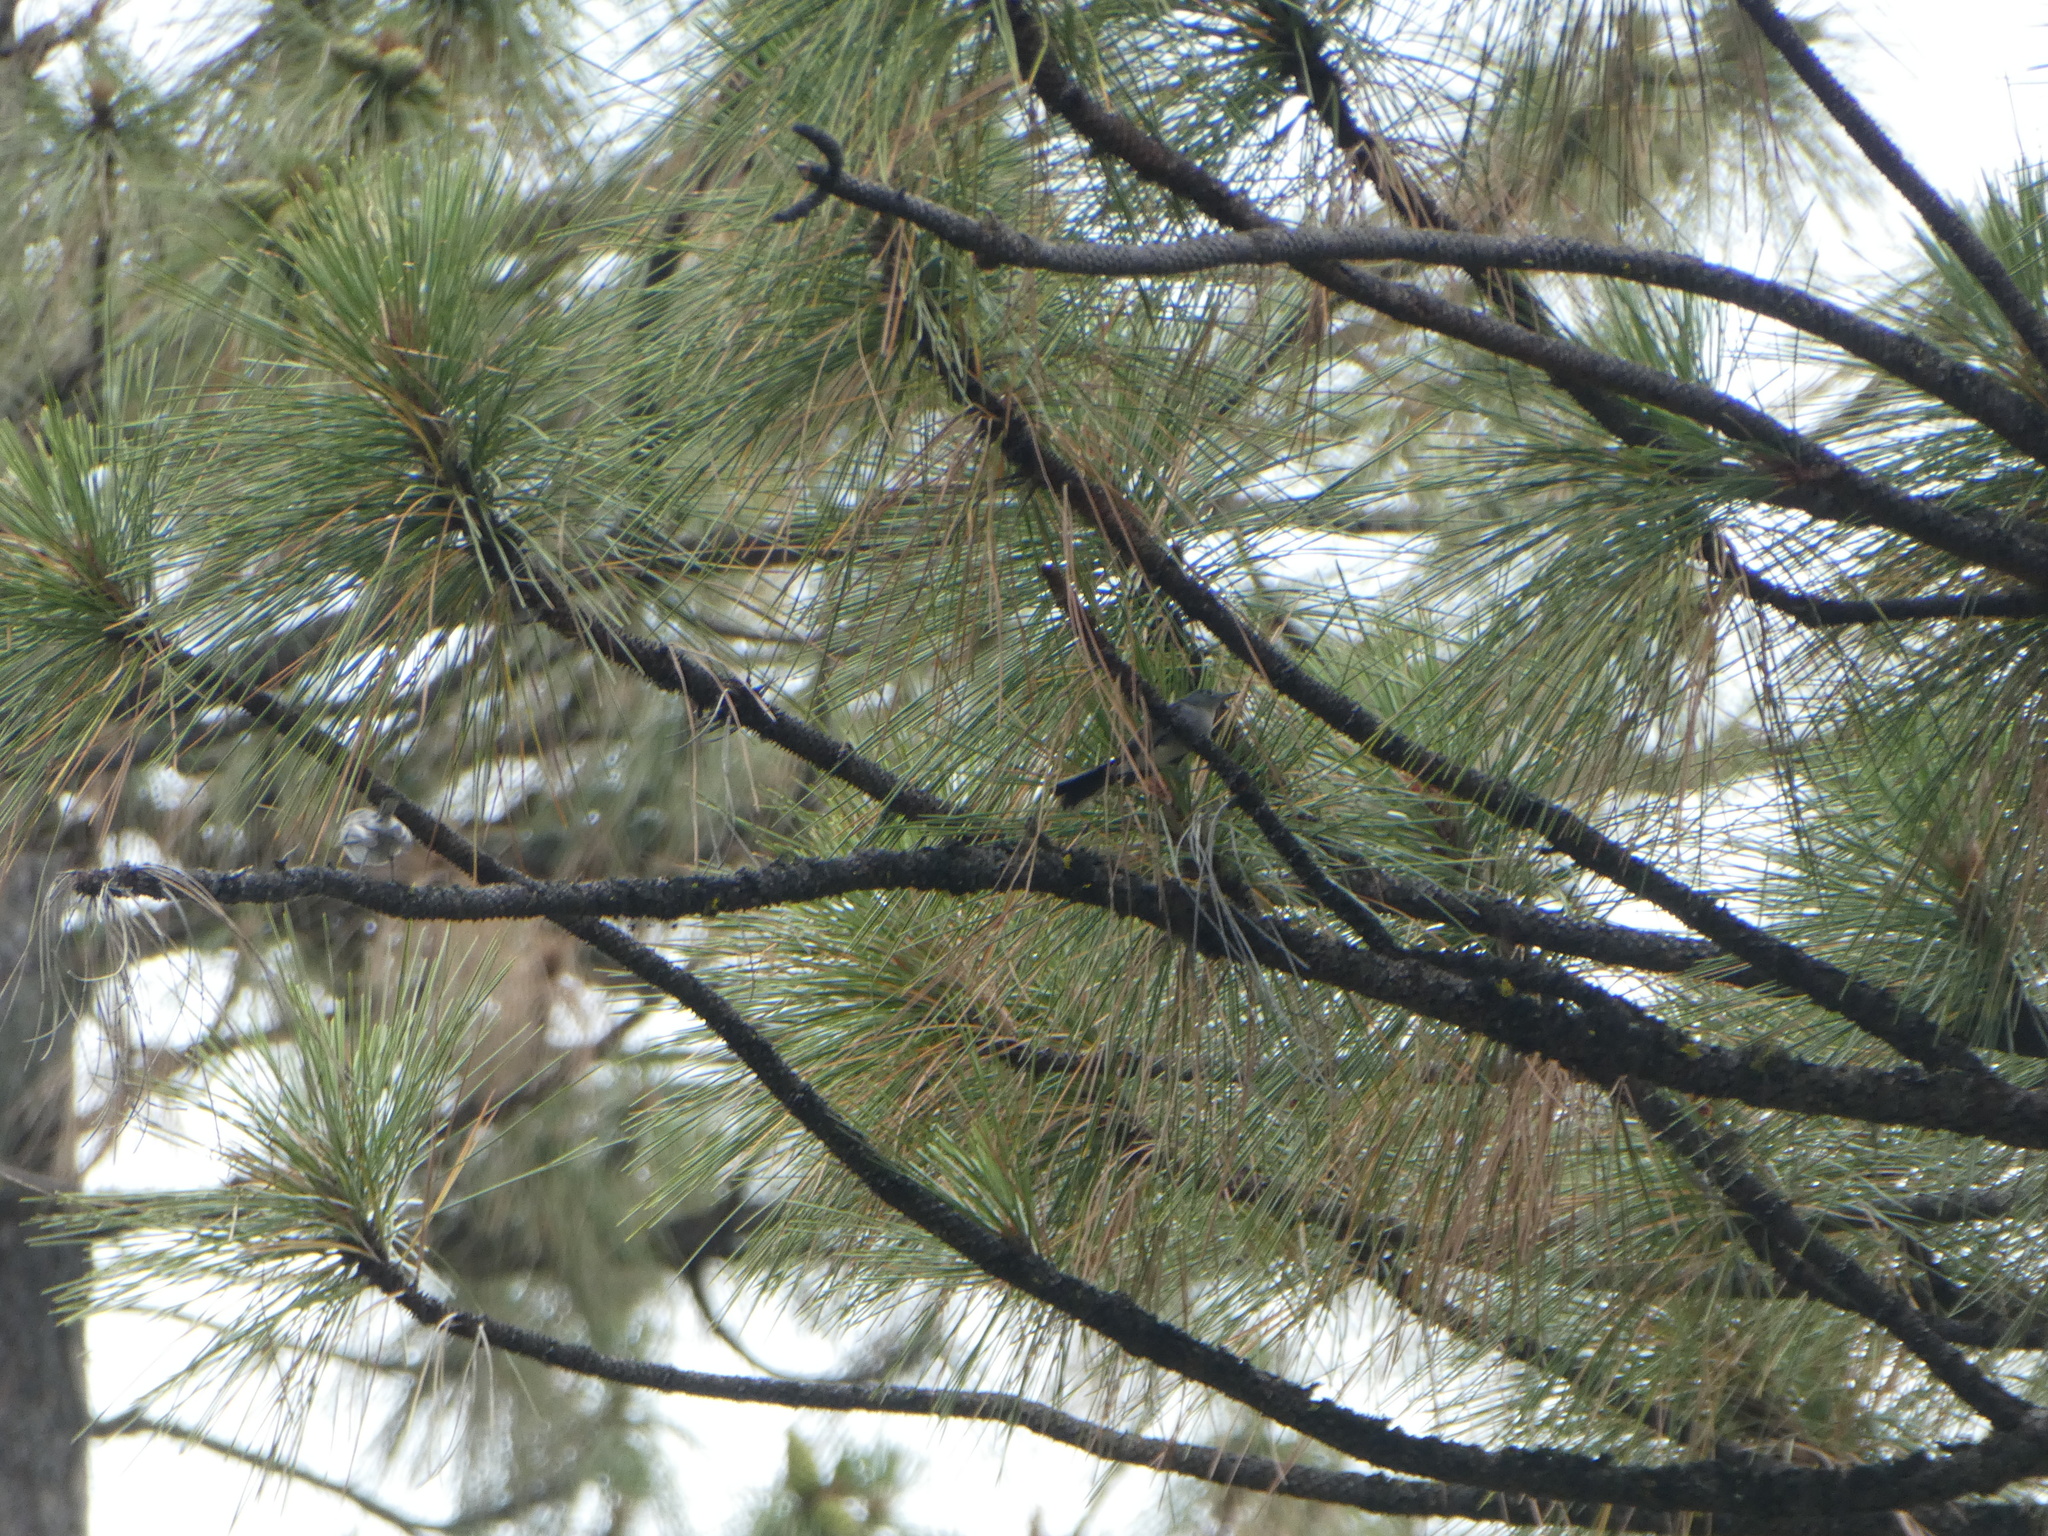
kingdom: Animalia
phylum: Chordata
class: Aves
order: Passeriformes
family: Polioptilidae
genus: Polioptila
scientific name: Polioptila caerulea
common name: Blue-gray gnatcatcher
